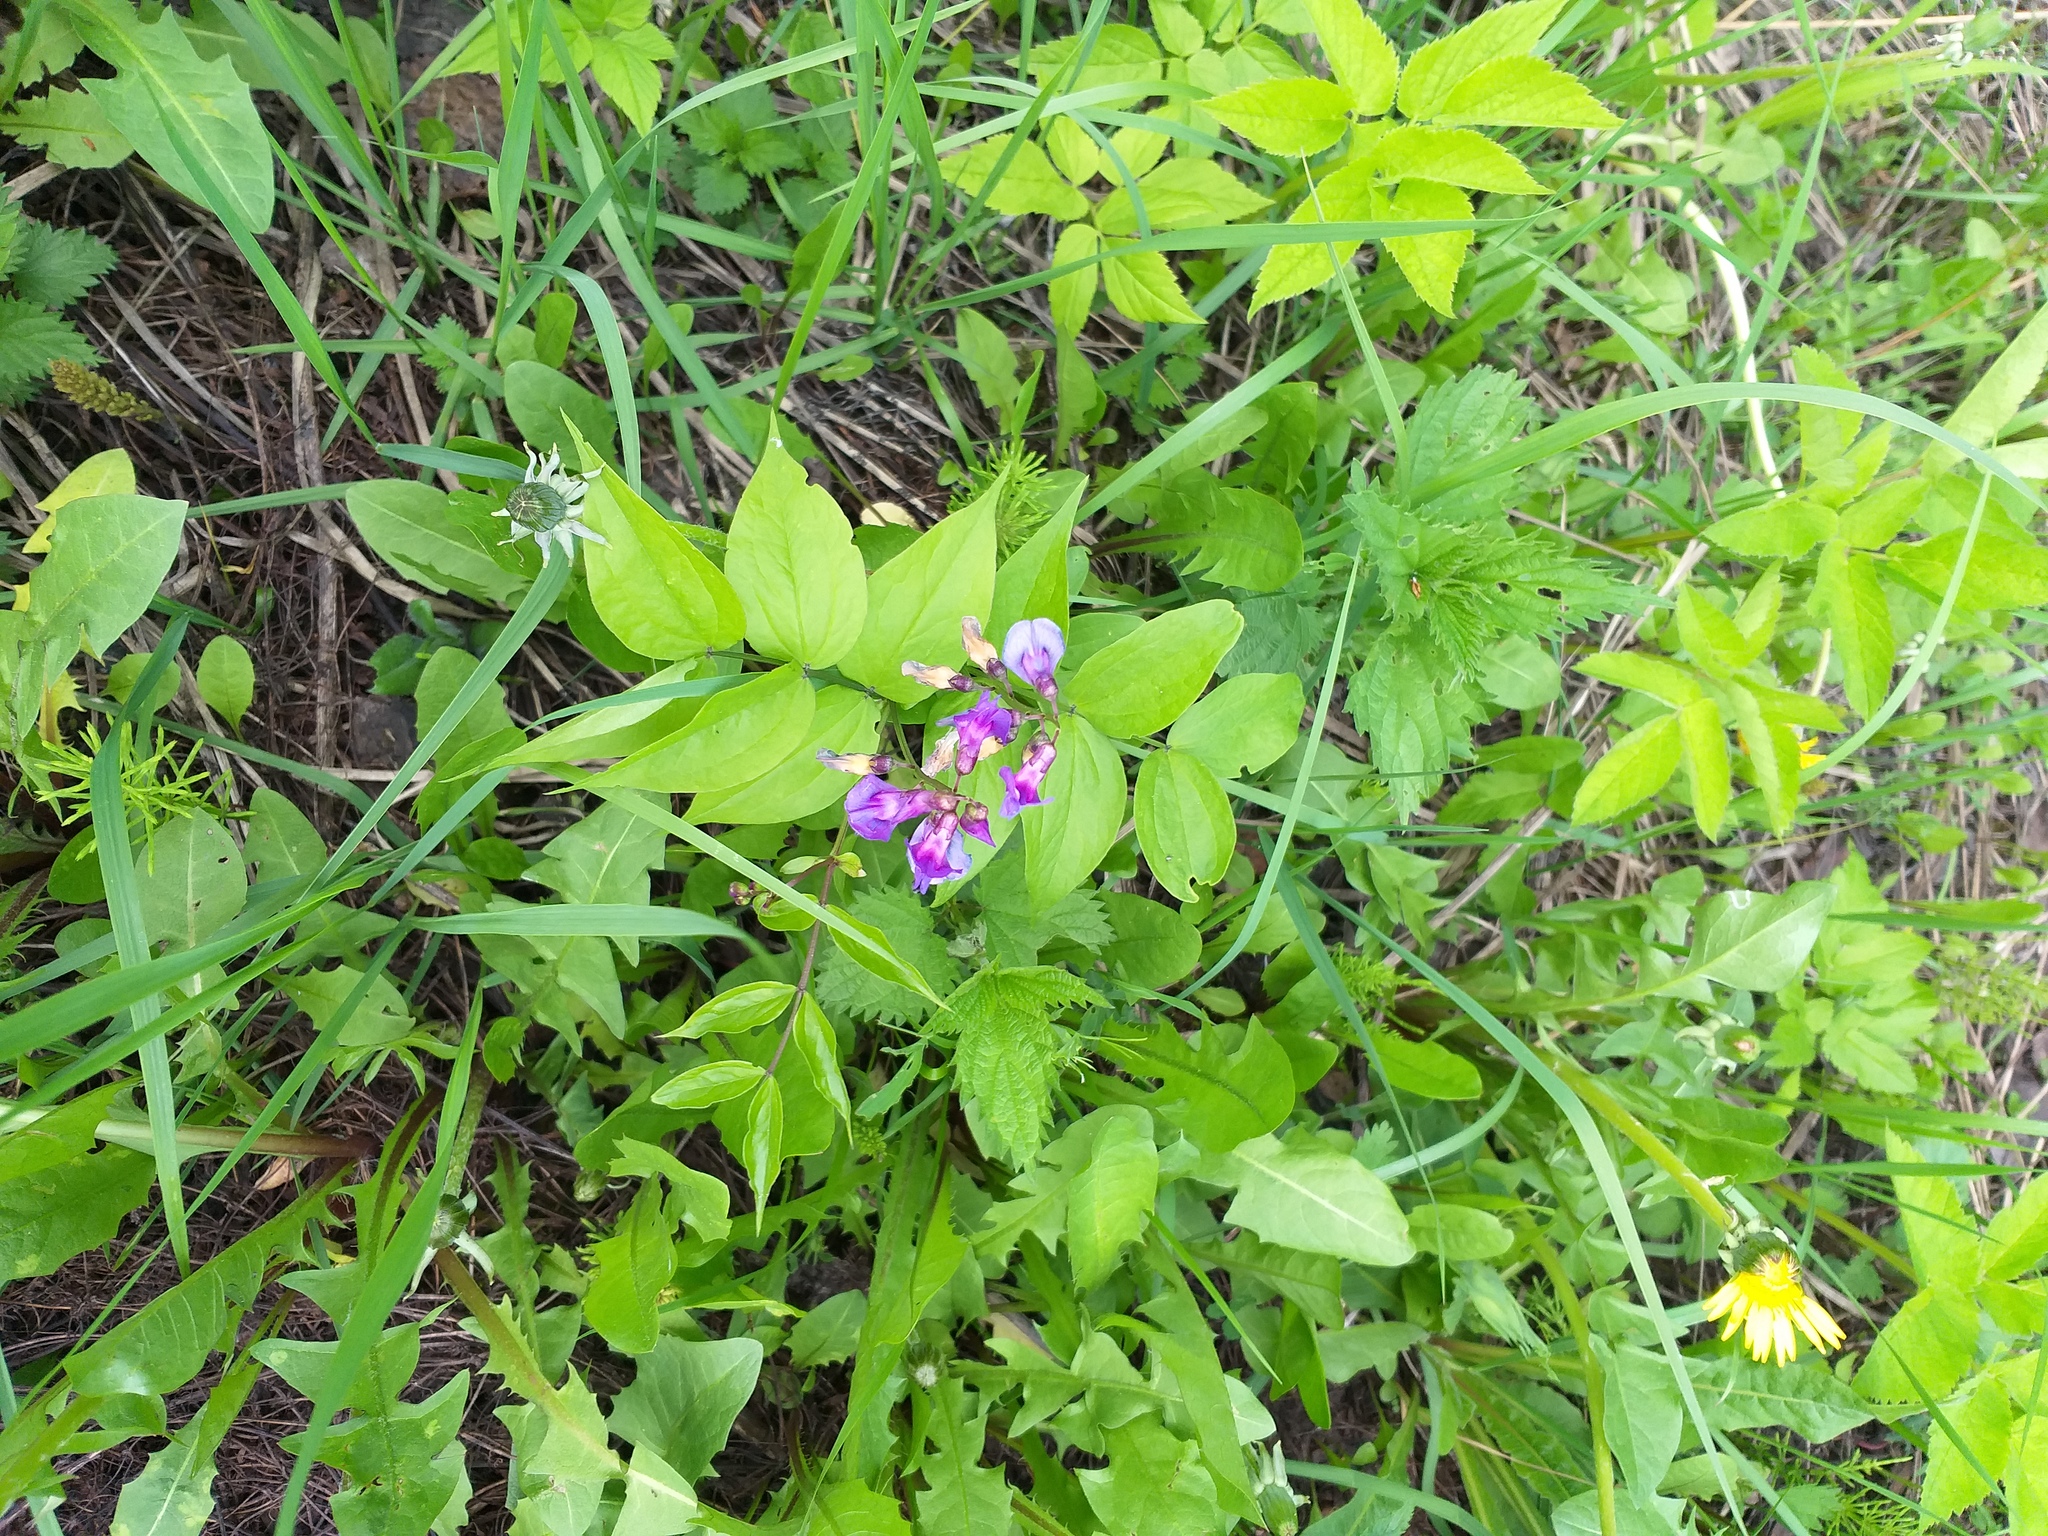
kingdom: Plantae
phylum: Tracheophyta
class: Magnoliopsida
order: Fabales
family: Fabaceae
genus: Lathyrus
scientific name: Lathyrus vernus
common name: Spring pea
